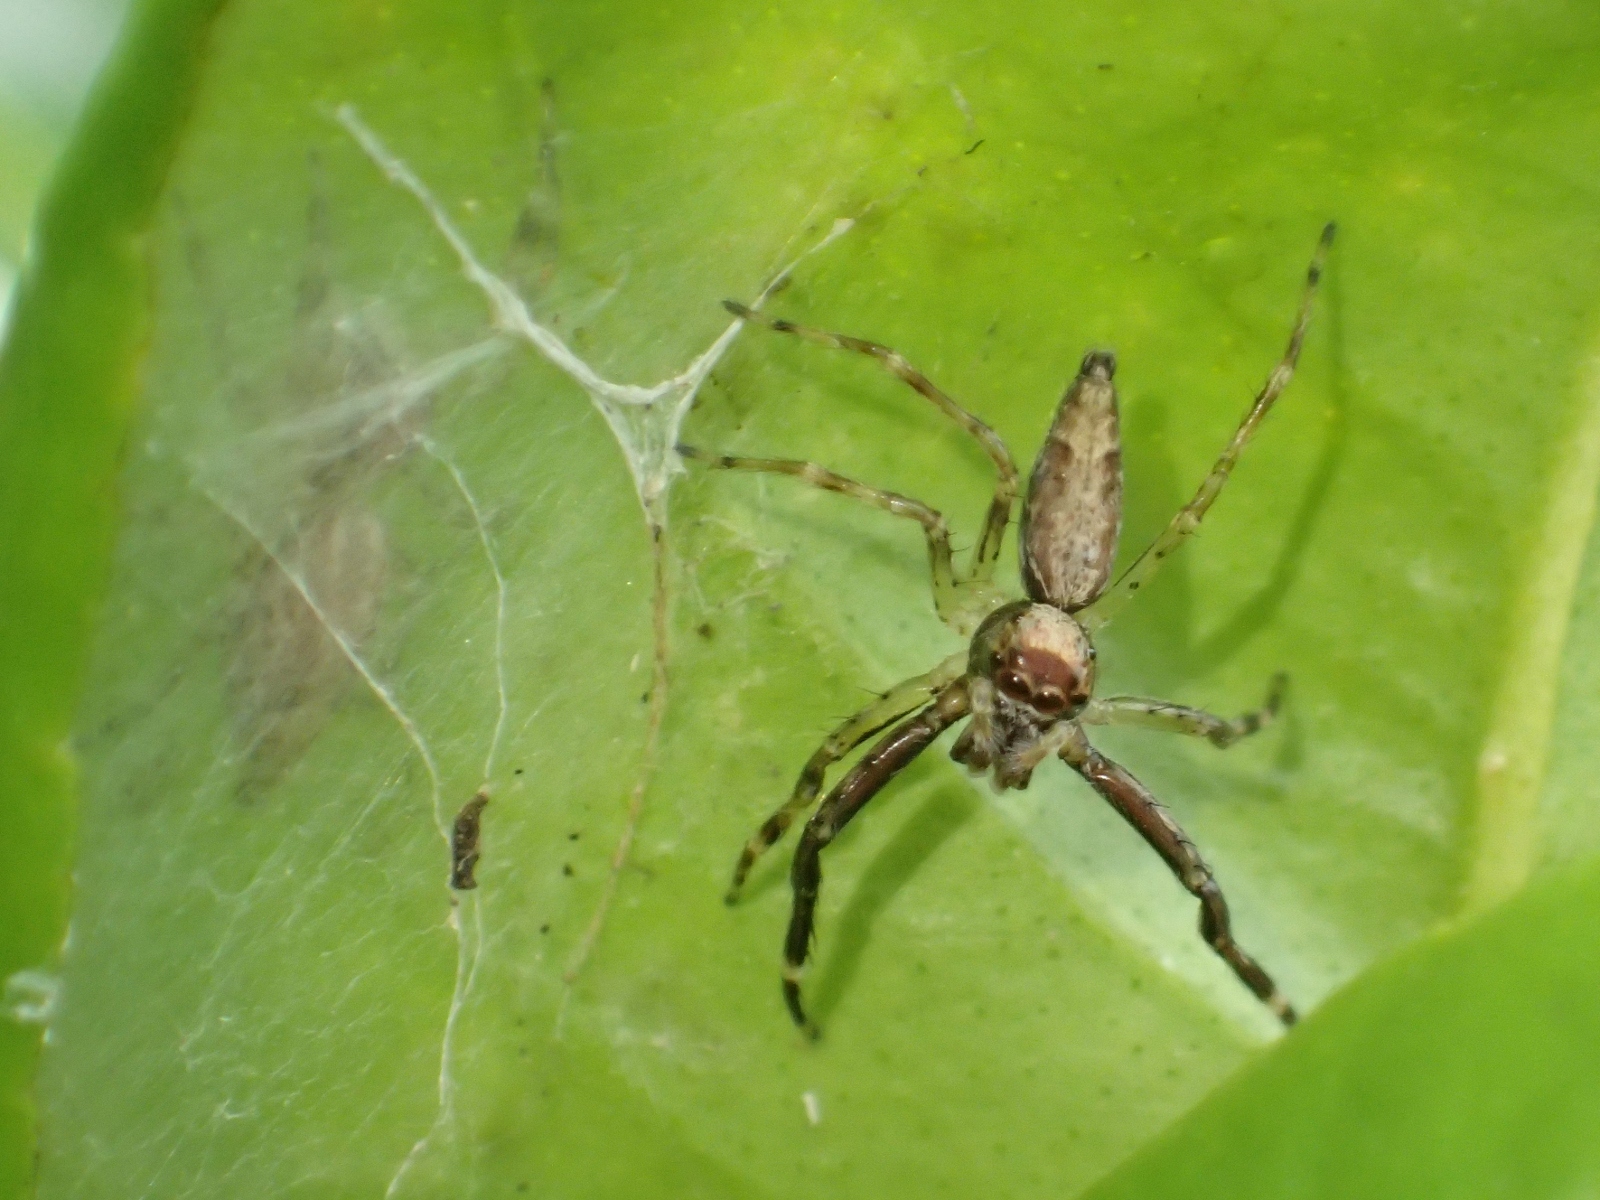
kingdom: Animalia
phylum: Arthropoda
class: Arachnida
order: Araneae
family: Salticidae
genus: Helpis
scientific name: Helpis minitabunda
